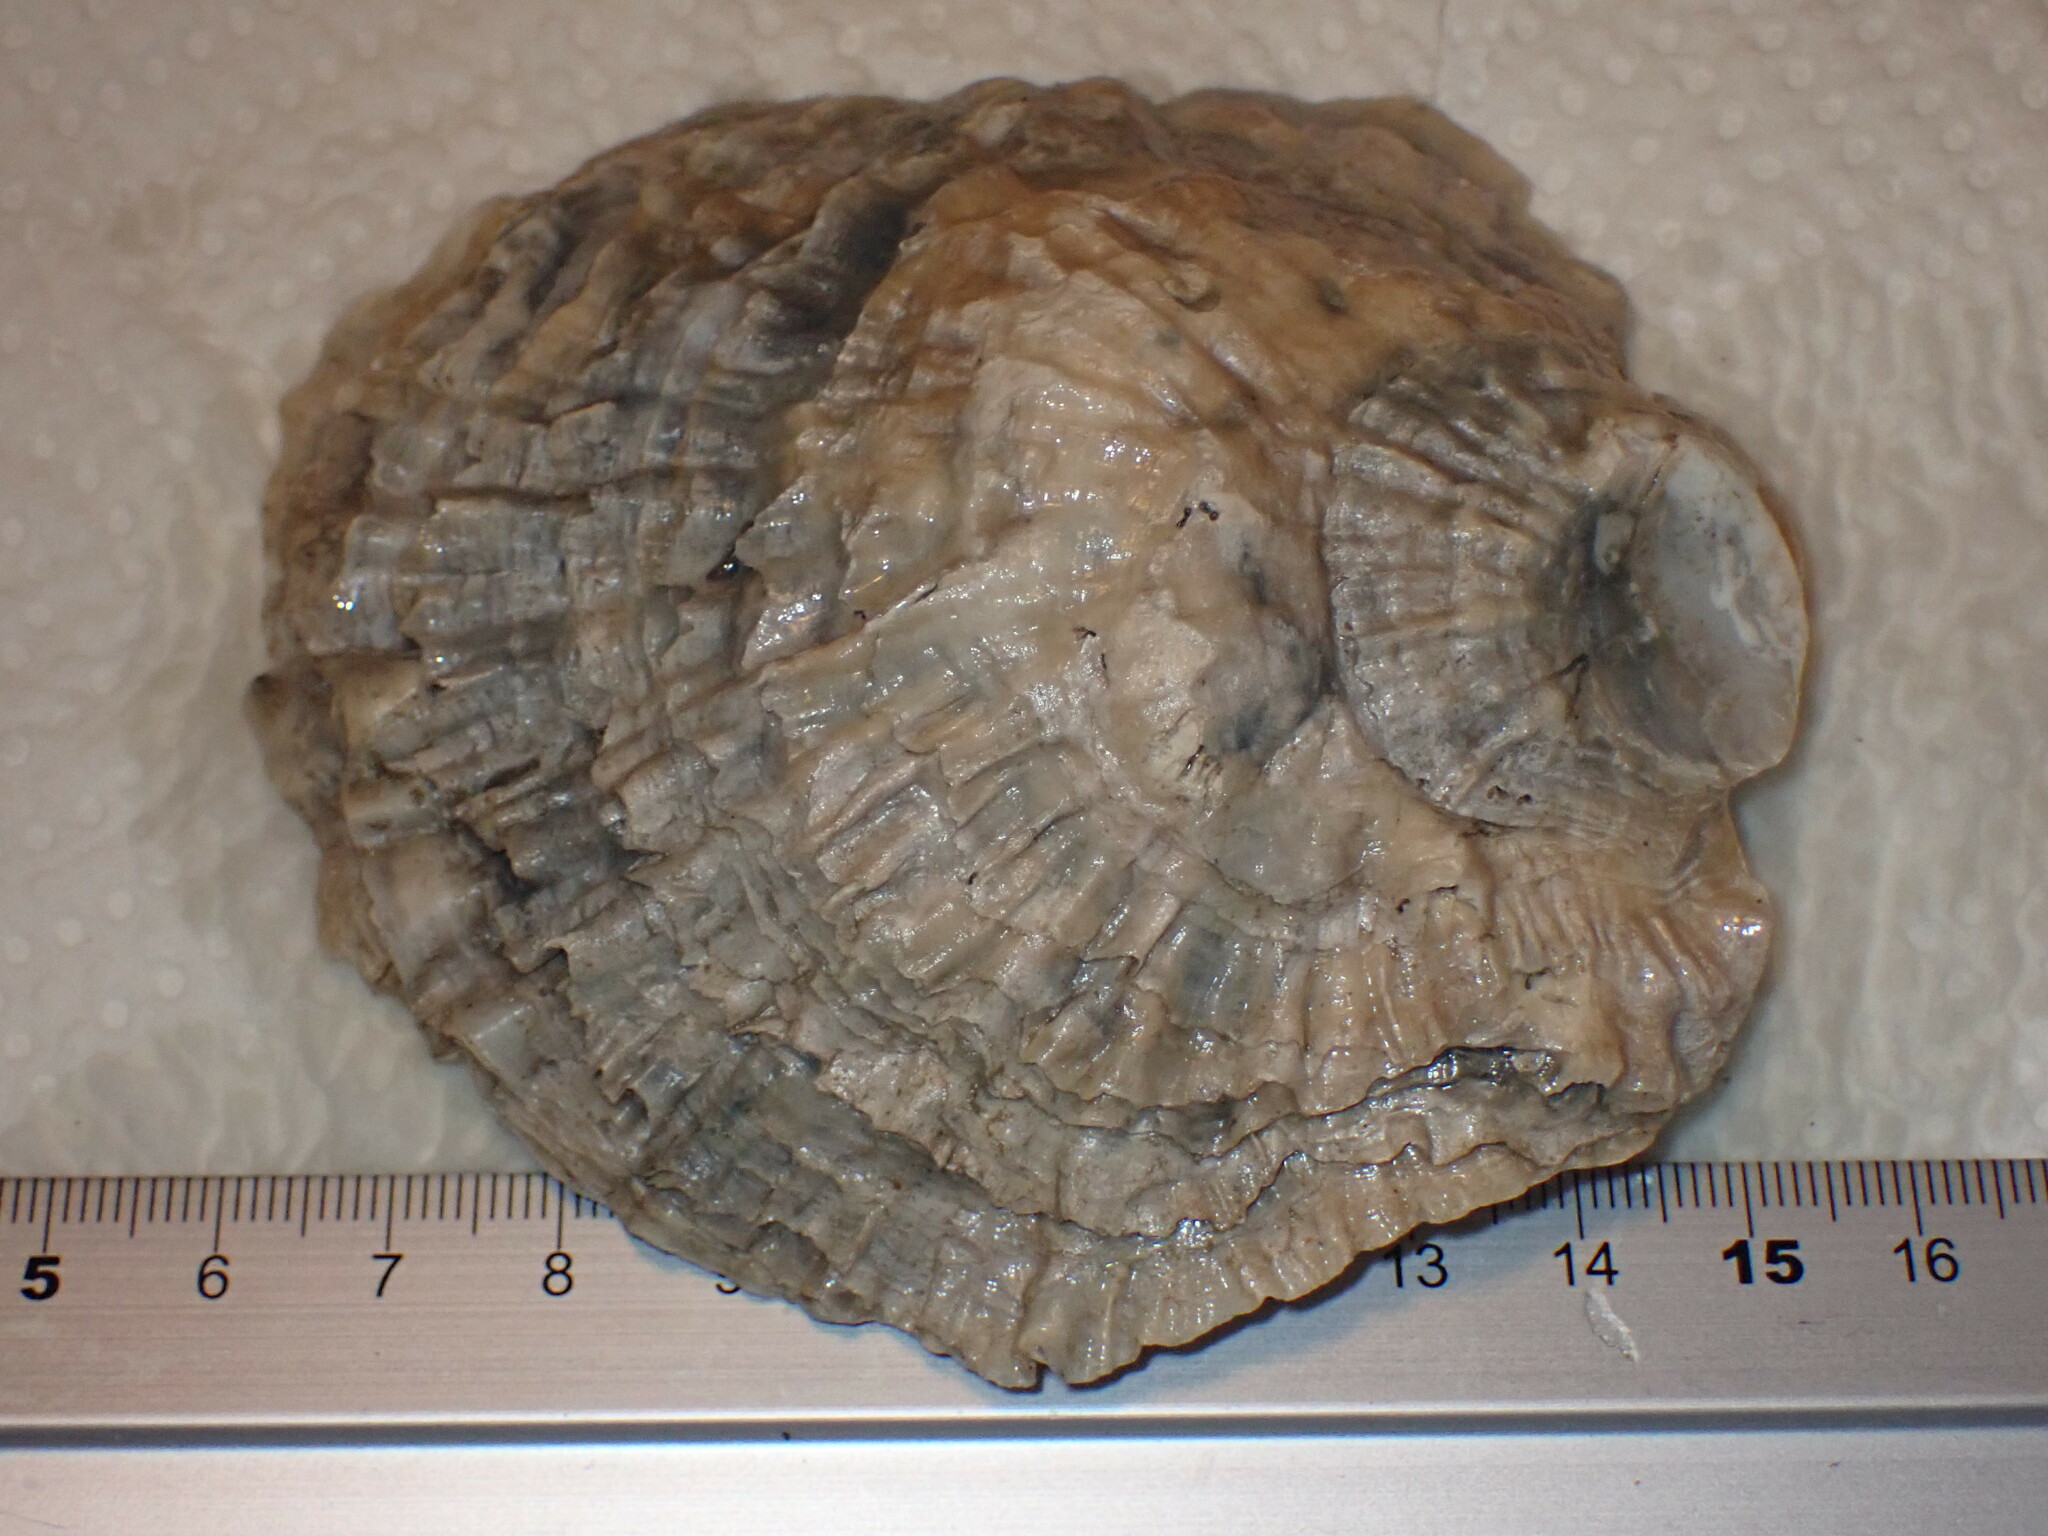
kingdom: Animalia
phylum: Mollusca
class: Bivalvia
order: Ostreida
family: Ostreidae
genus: Ostrea
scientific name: Ostrea edulis
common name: Flat oyster
